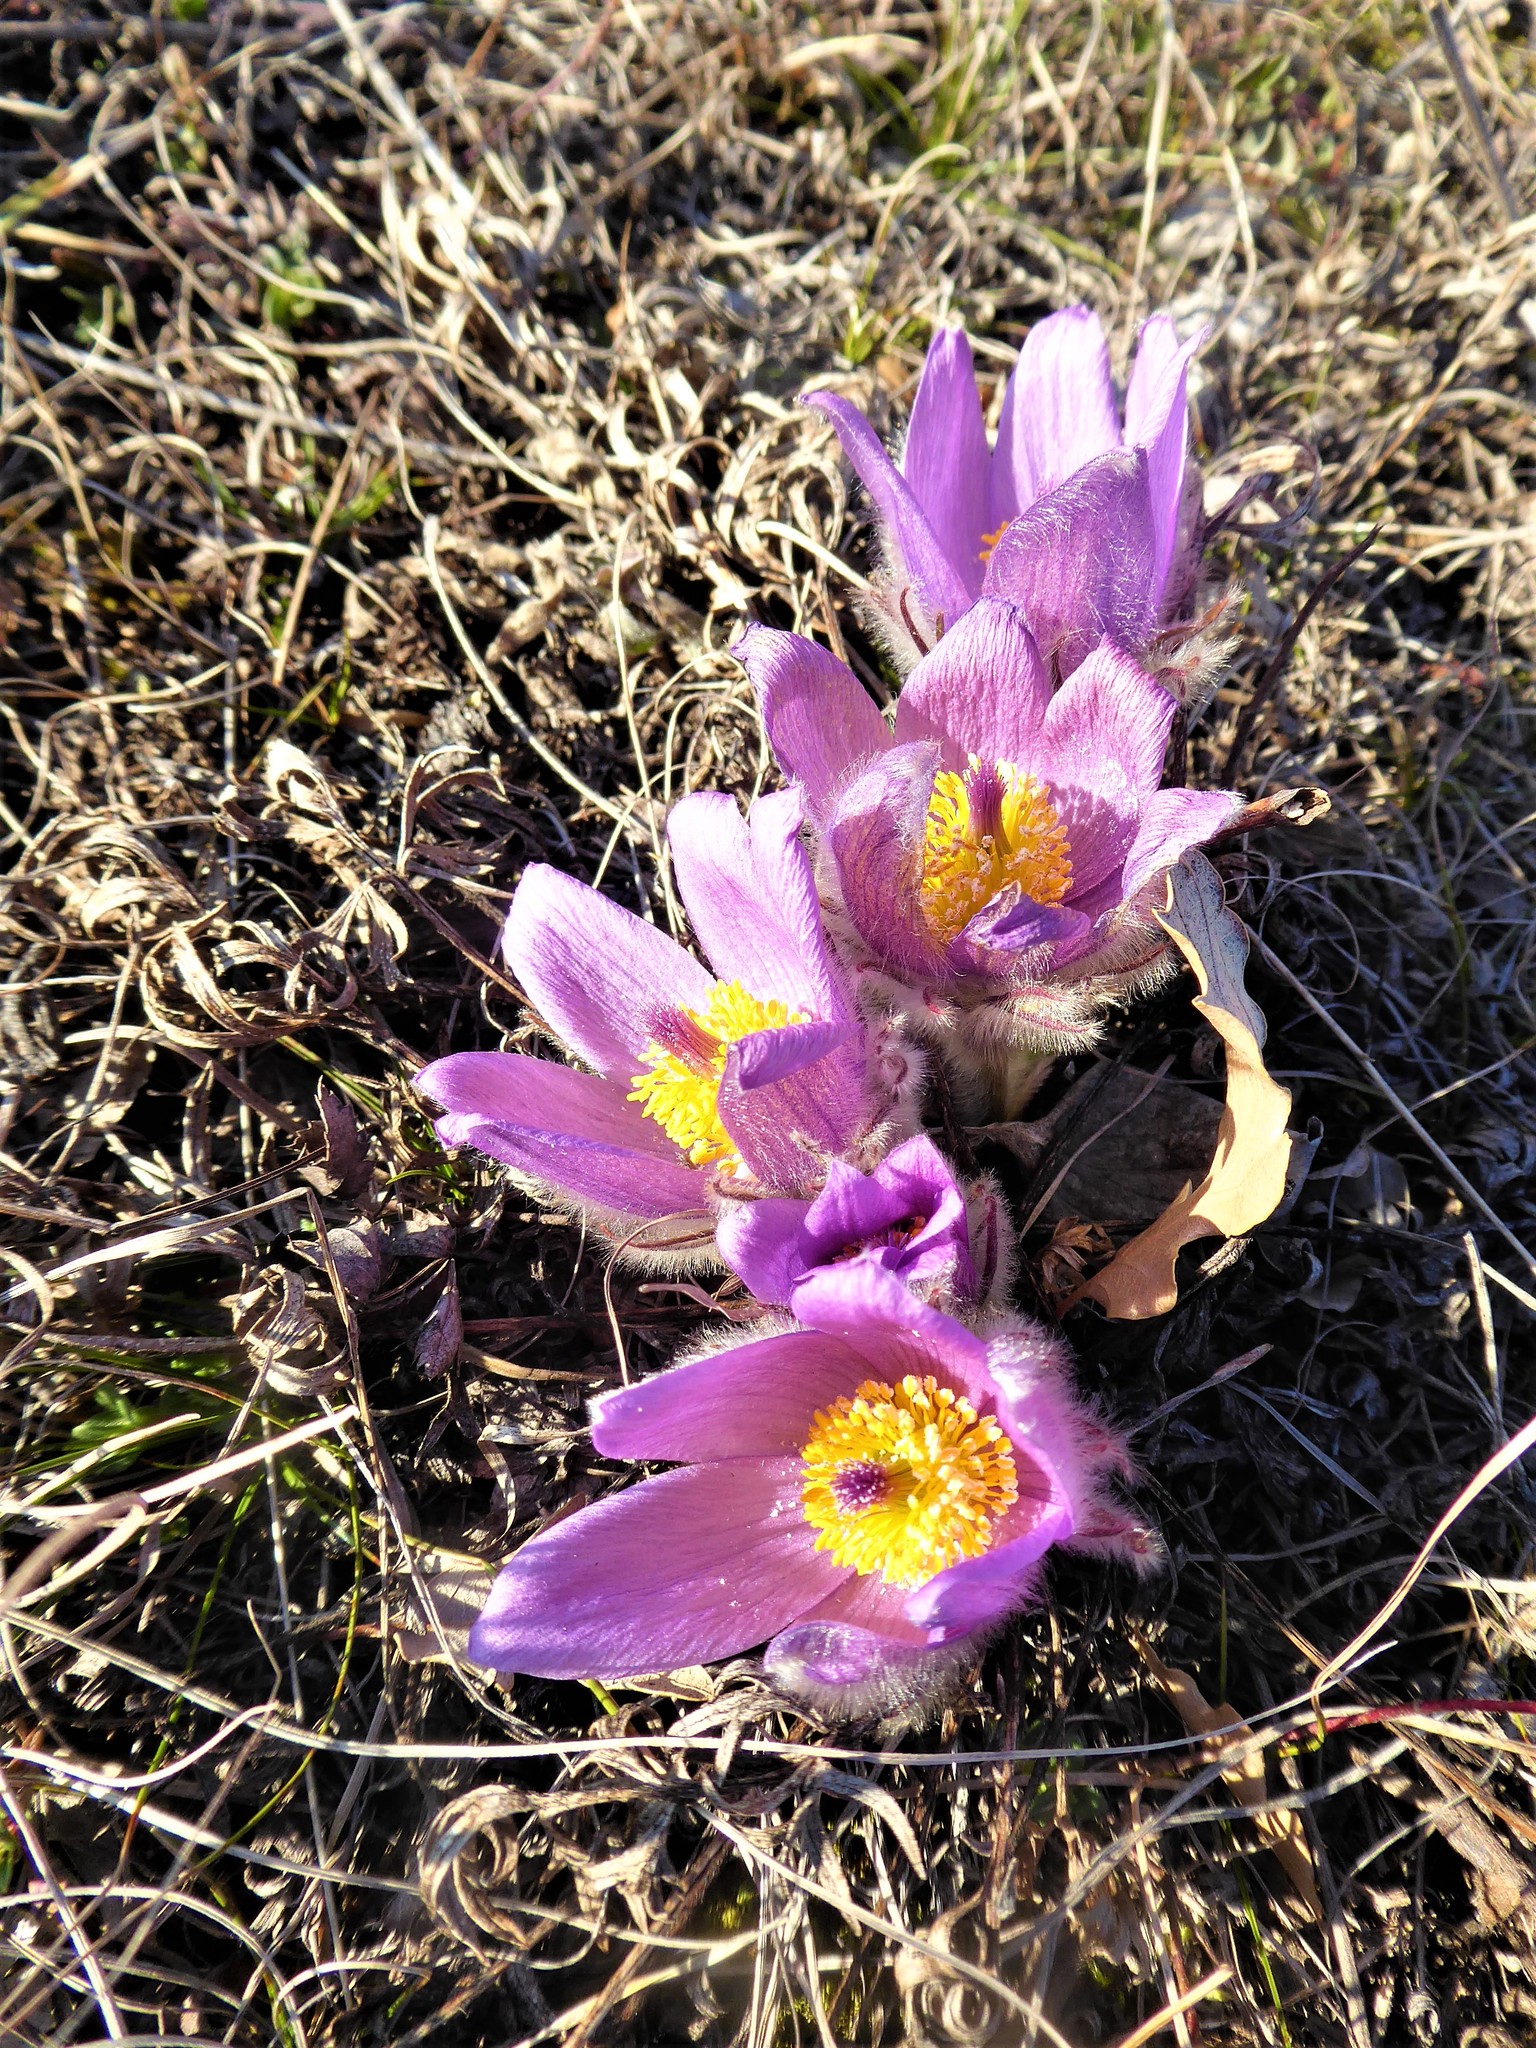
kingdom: Plantae
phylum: Tracheophyta
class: Magnoliopsida
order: Ranunculales
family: Ranunculaceae
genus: Pulsatilla
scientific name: Pulsatilla grandis
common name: Greater pasque flower
